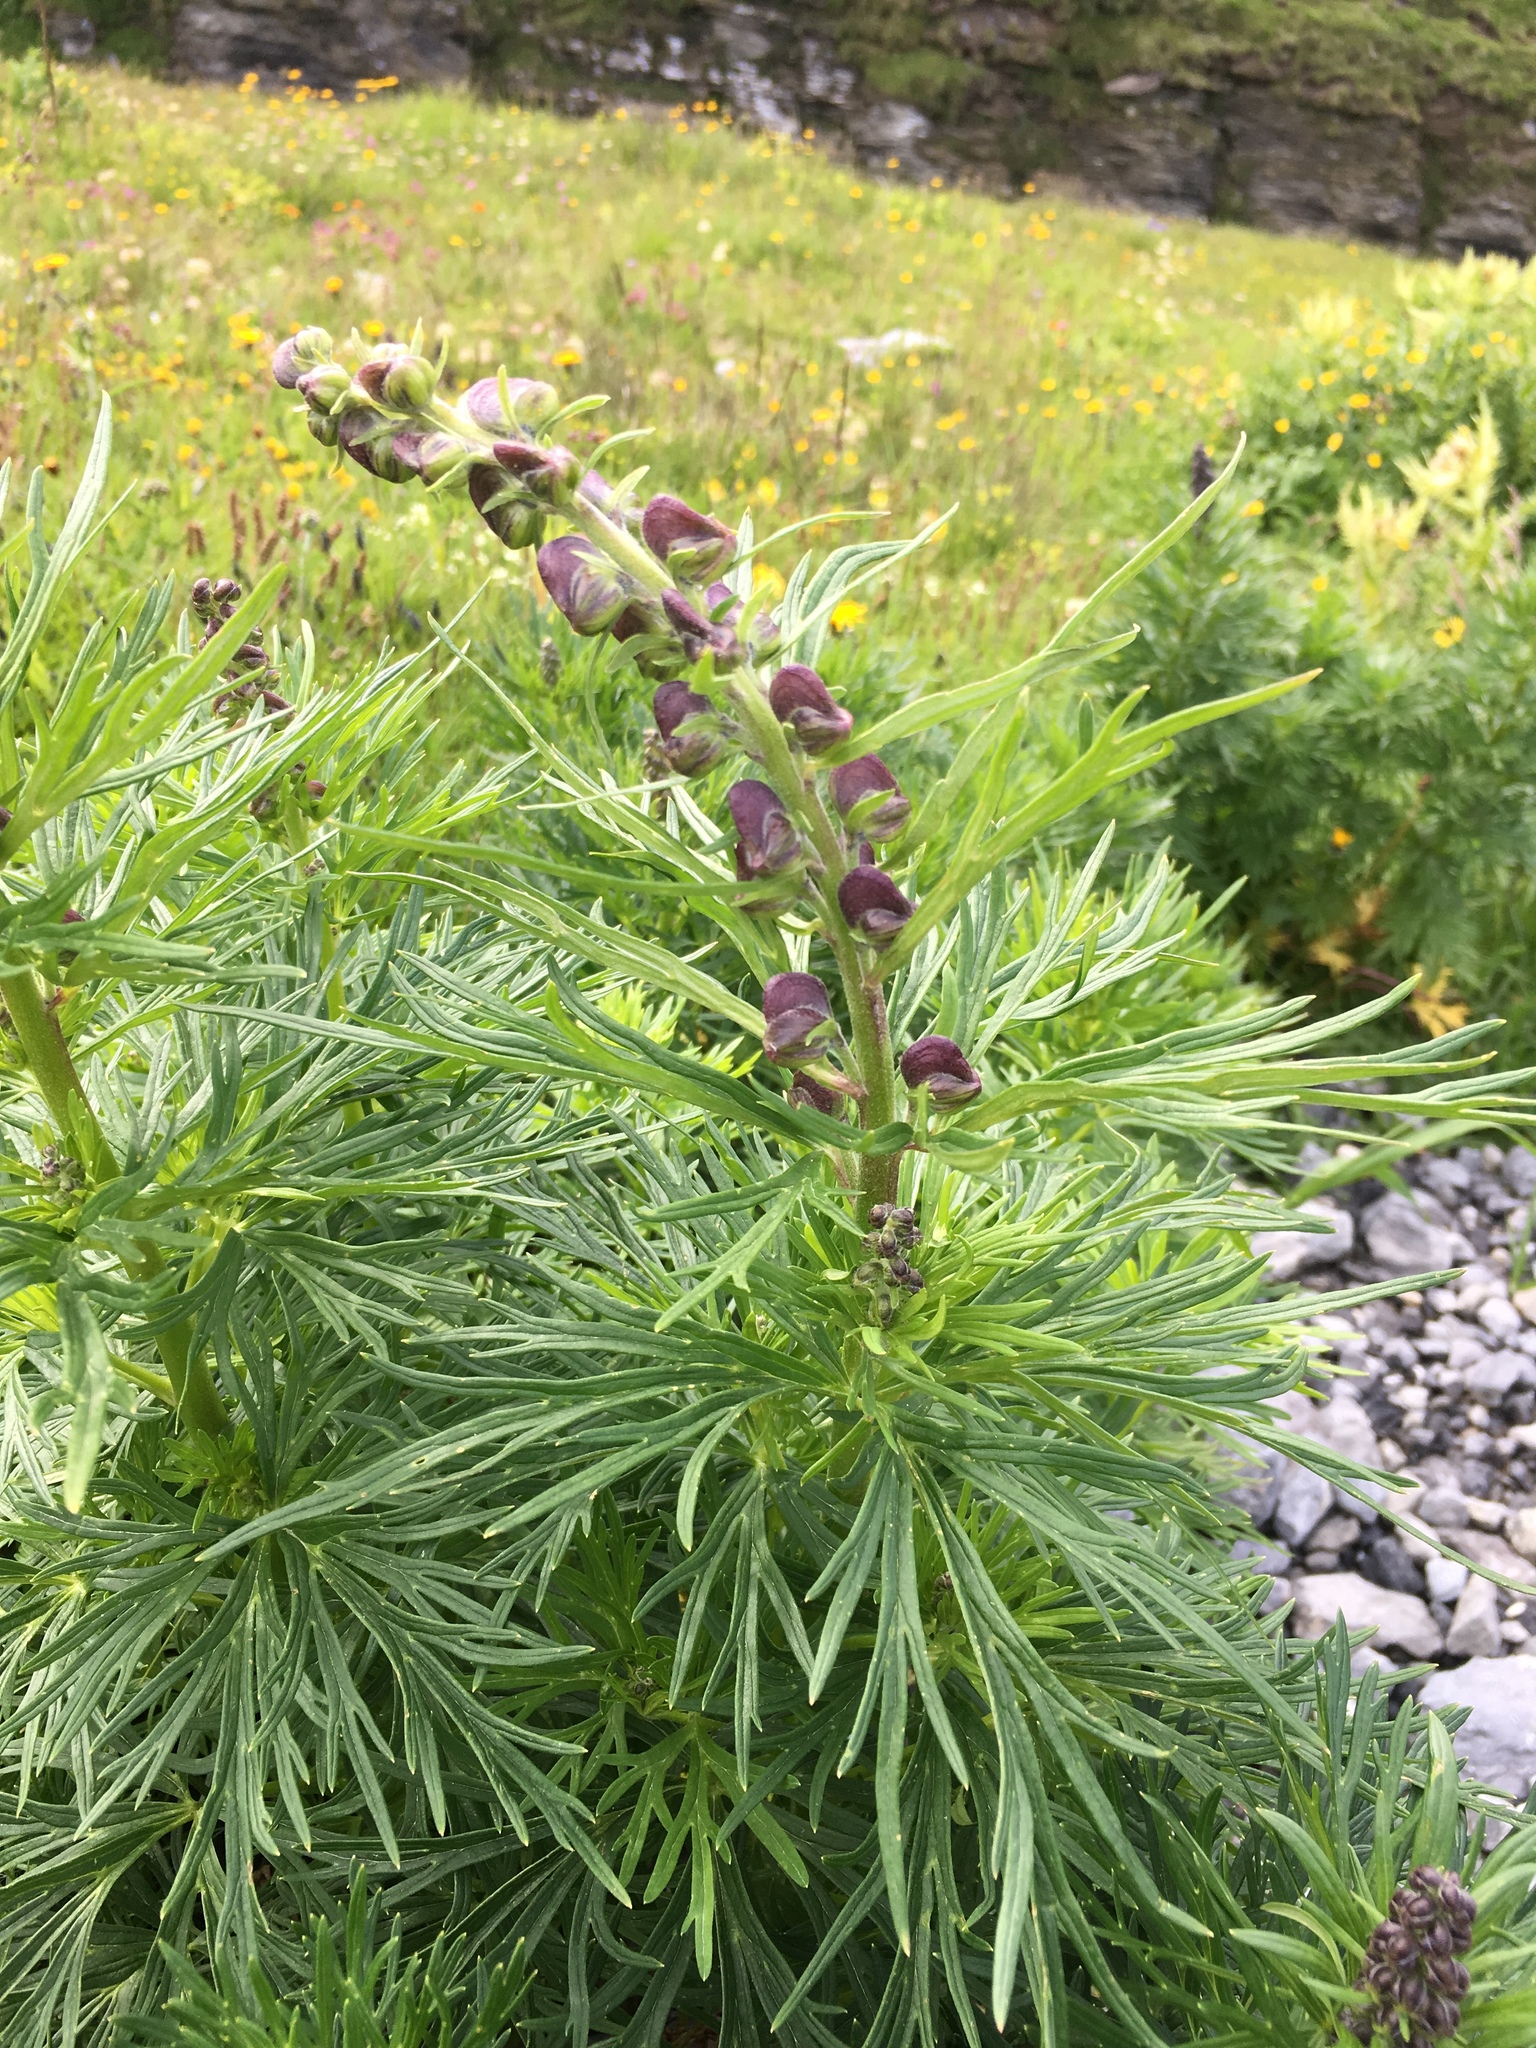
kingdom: Plantae
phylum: Tracheophyta
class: Magnoliopsida
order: Ranunculales
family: Ranunculaceae
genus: Aconitum
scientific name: Aconitum napellus
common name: Garden monkshood
